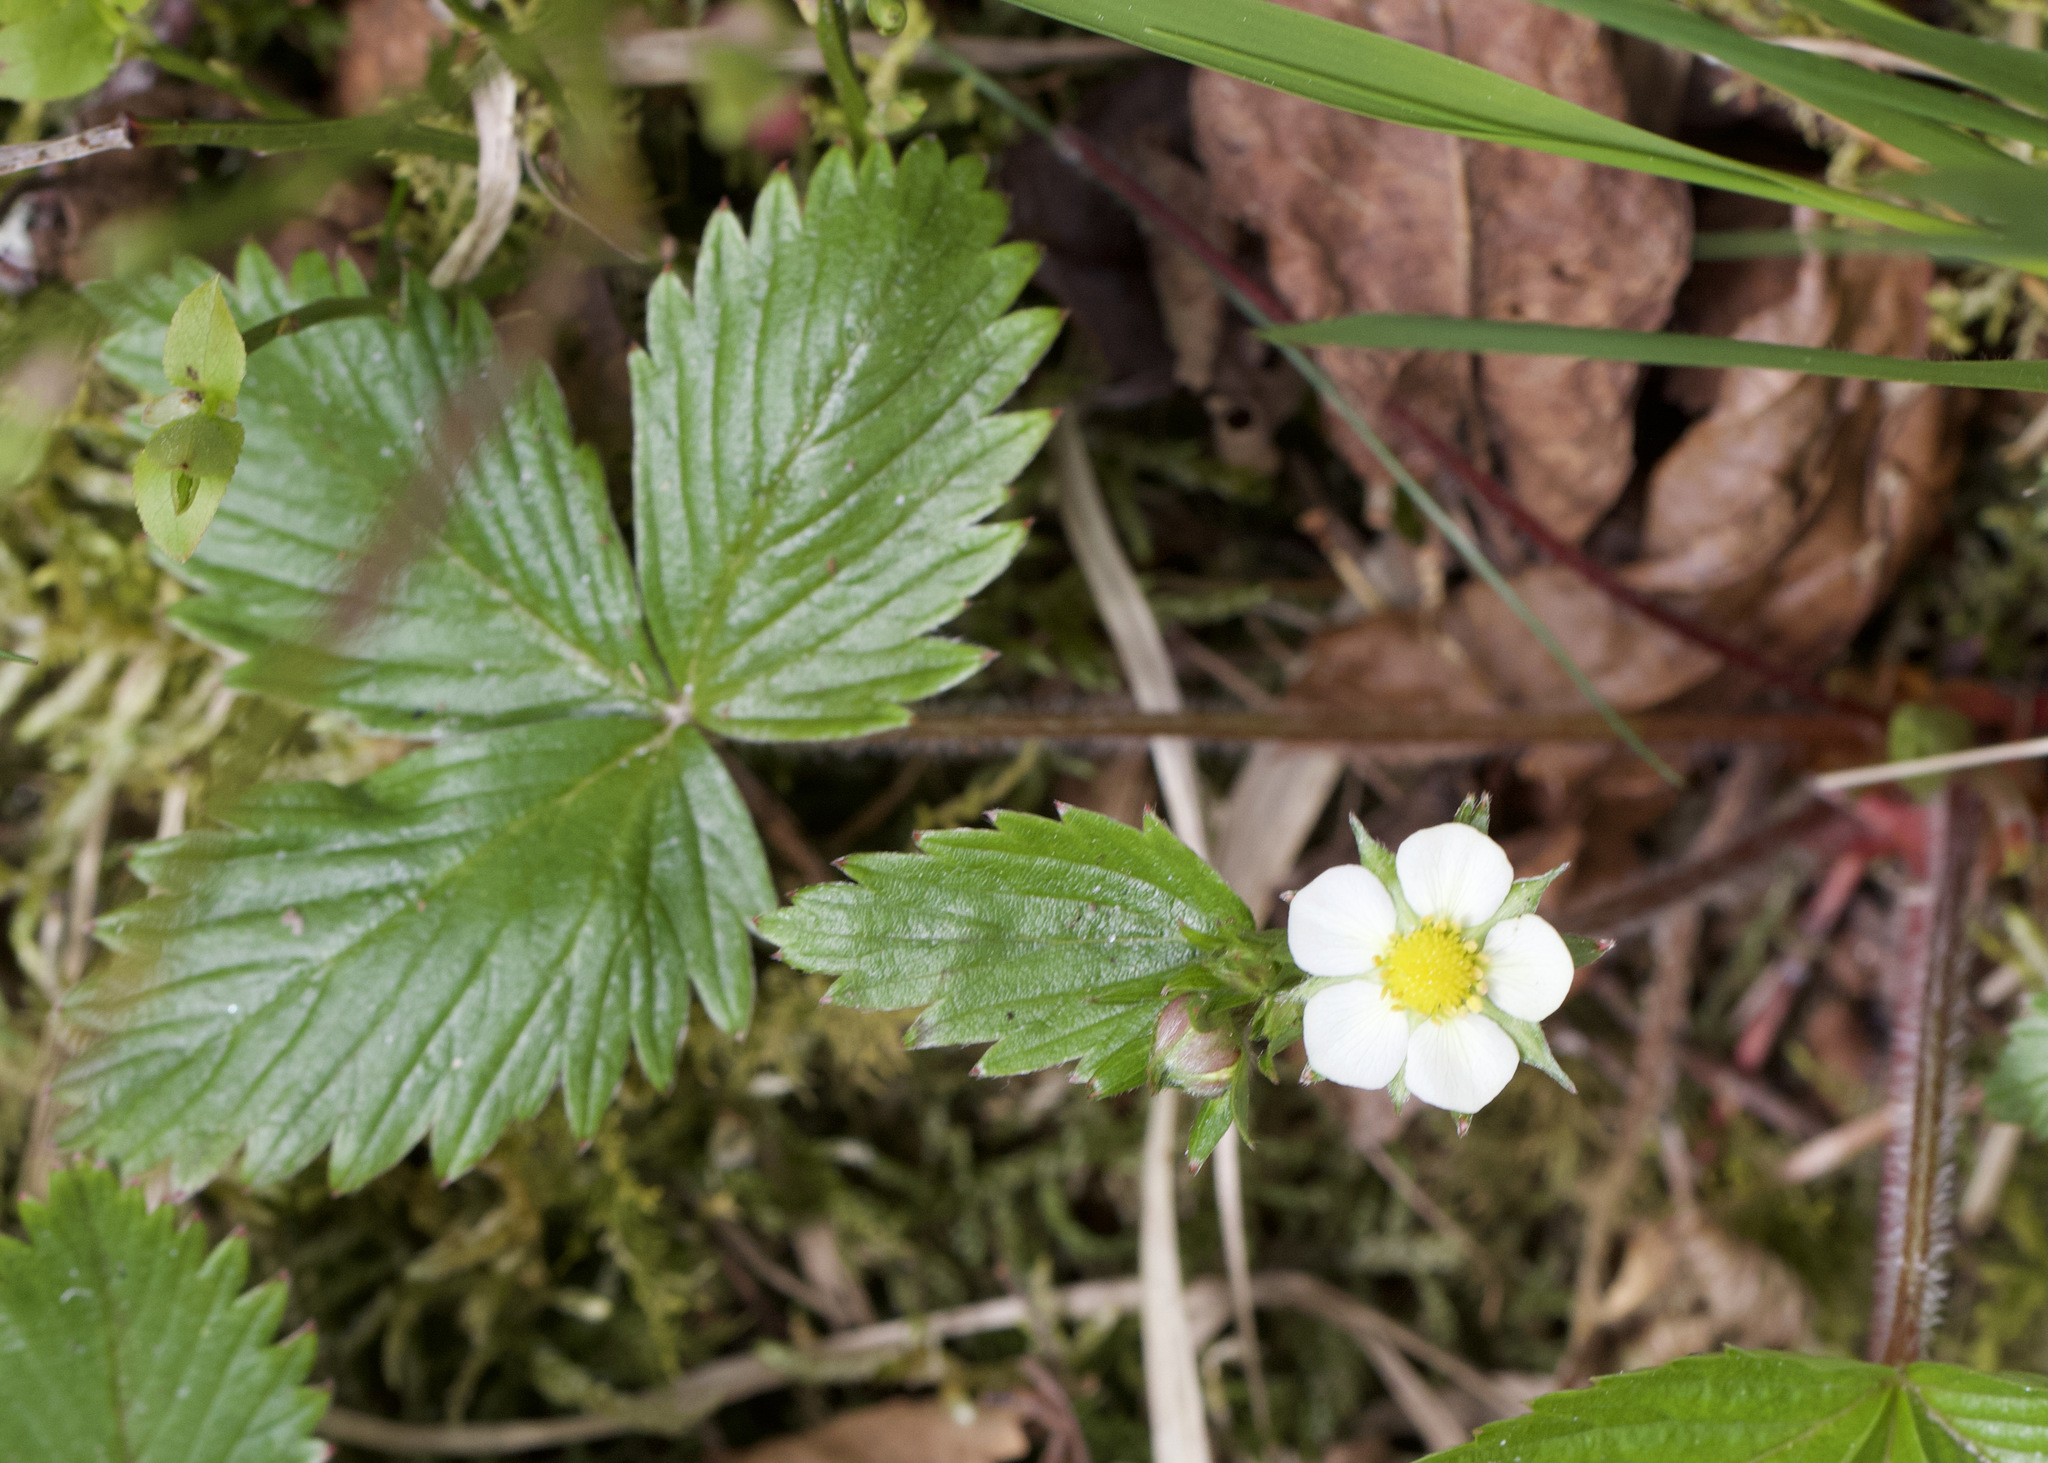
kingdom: Plantae
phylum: Tracheophyta
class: Magnoliopsida
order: Rosales
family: Rosaceae
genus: Fragaria
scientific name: Fragaria vesca
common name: Wild strawberry
